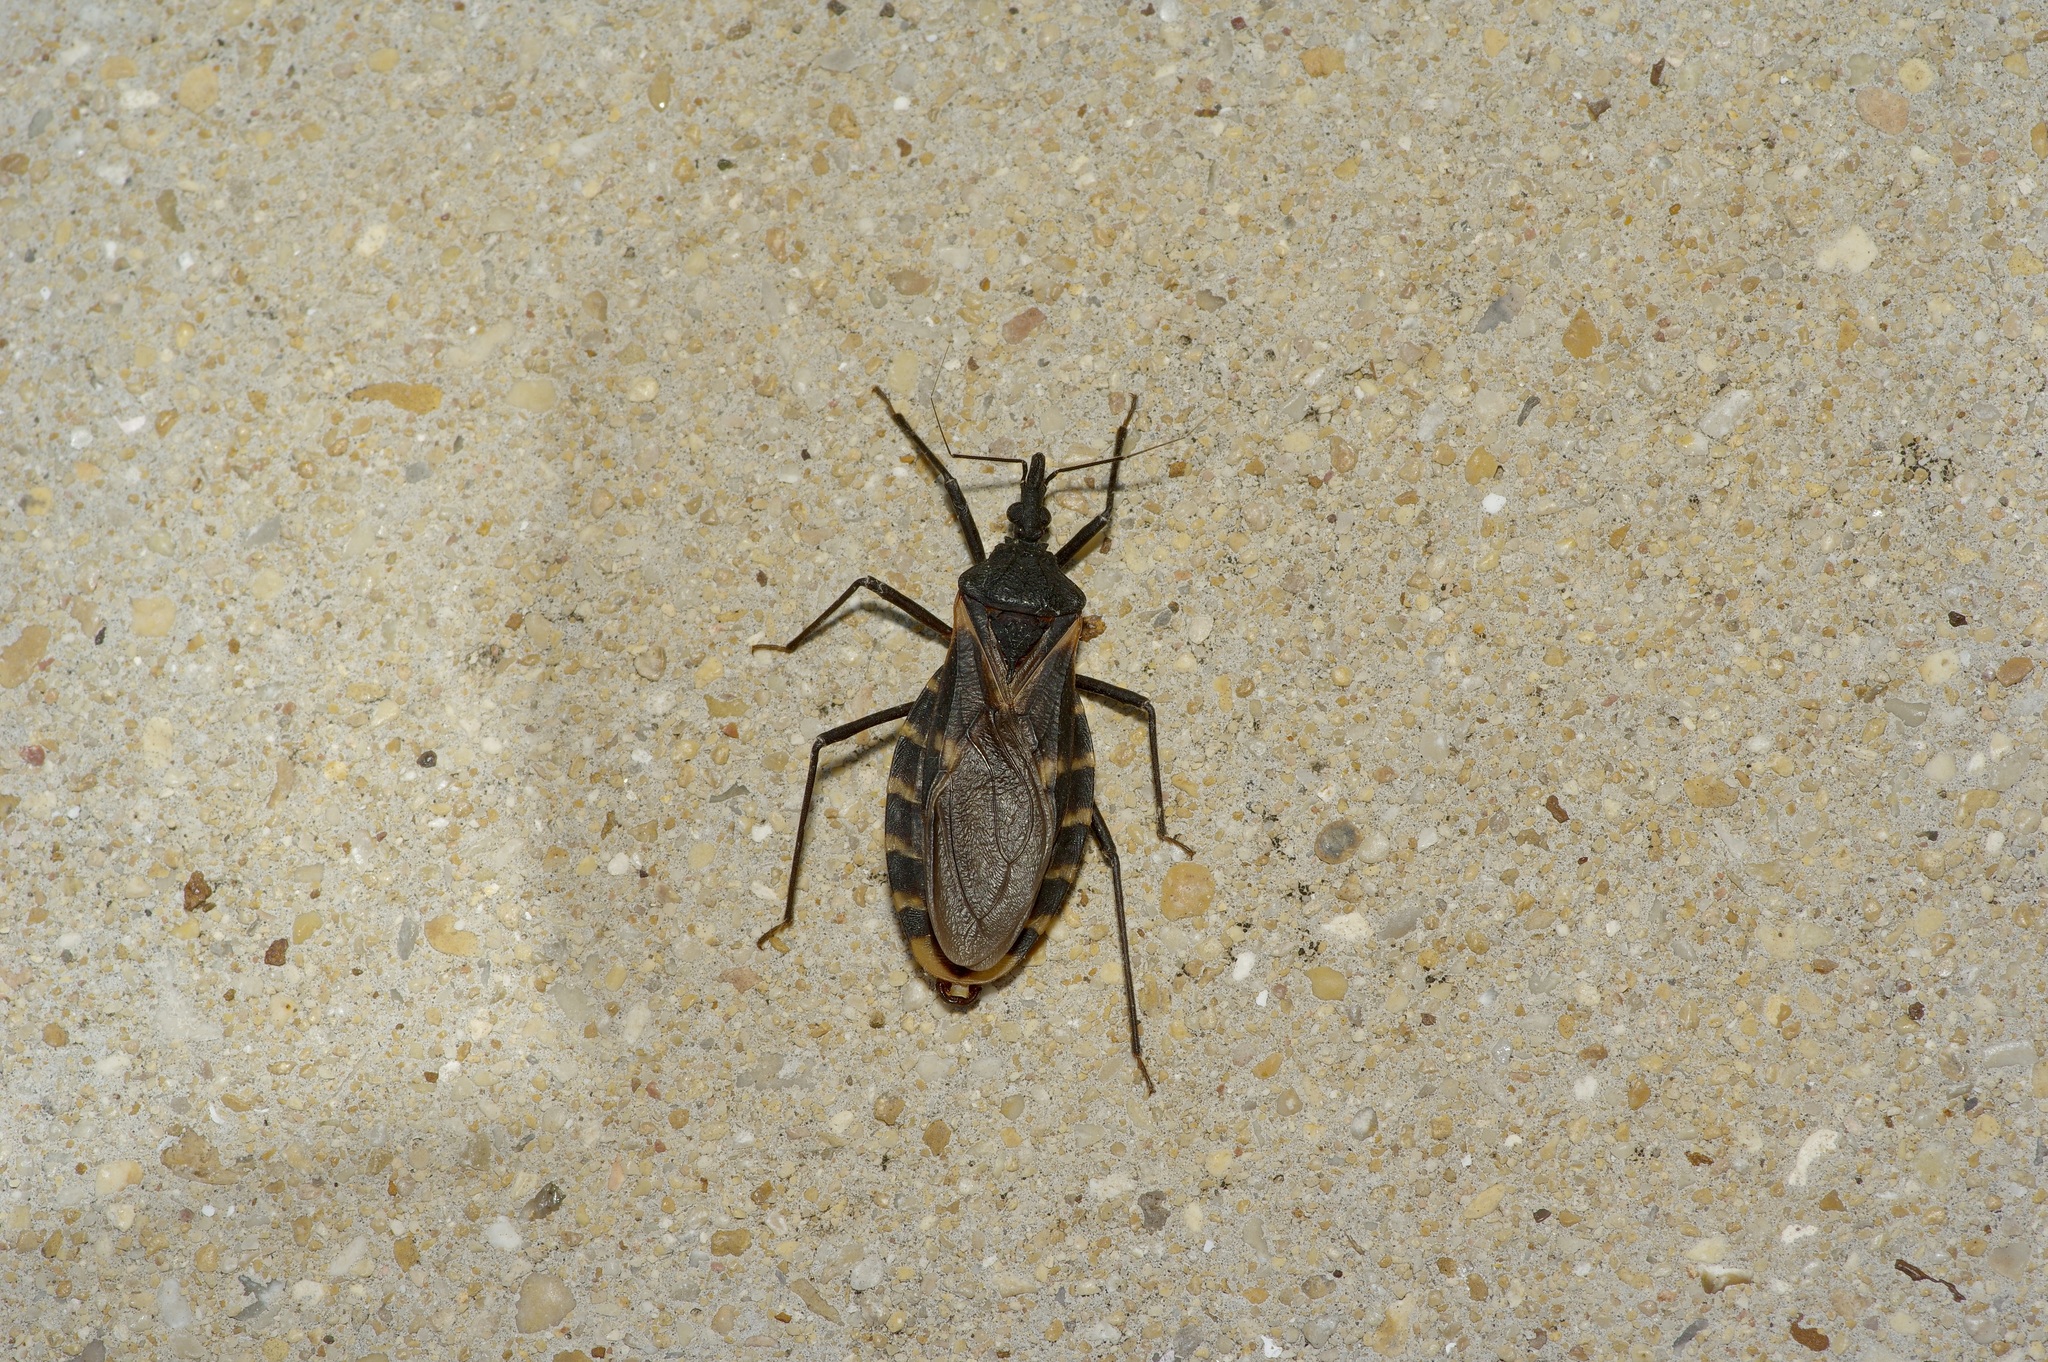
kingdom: Animalia
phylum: Arthropoda
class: Insecta
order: Hemiptera
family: Reduviidae
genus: Triatoma
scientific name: Triatoma gerstaeckeri
